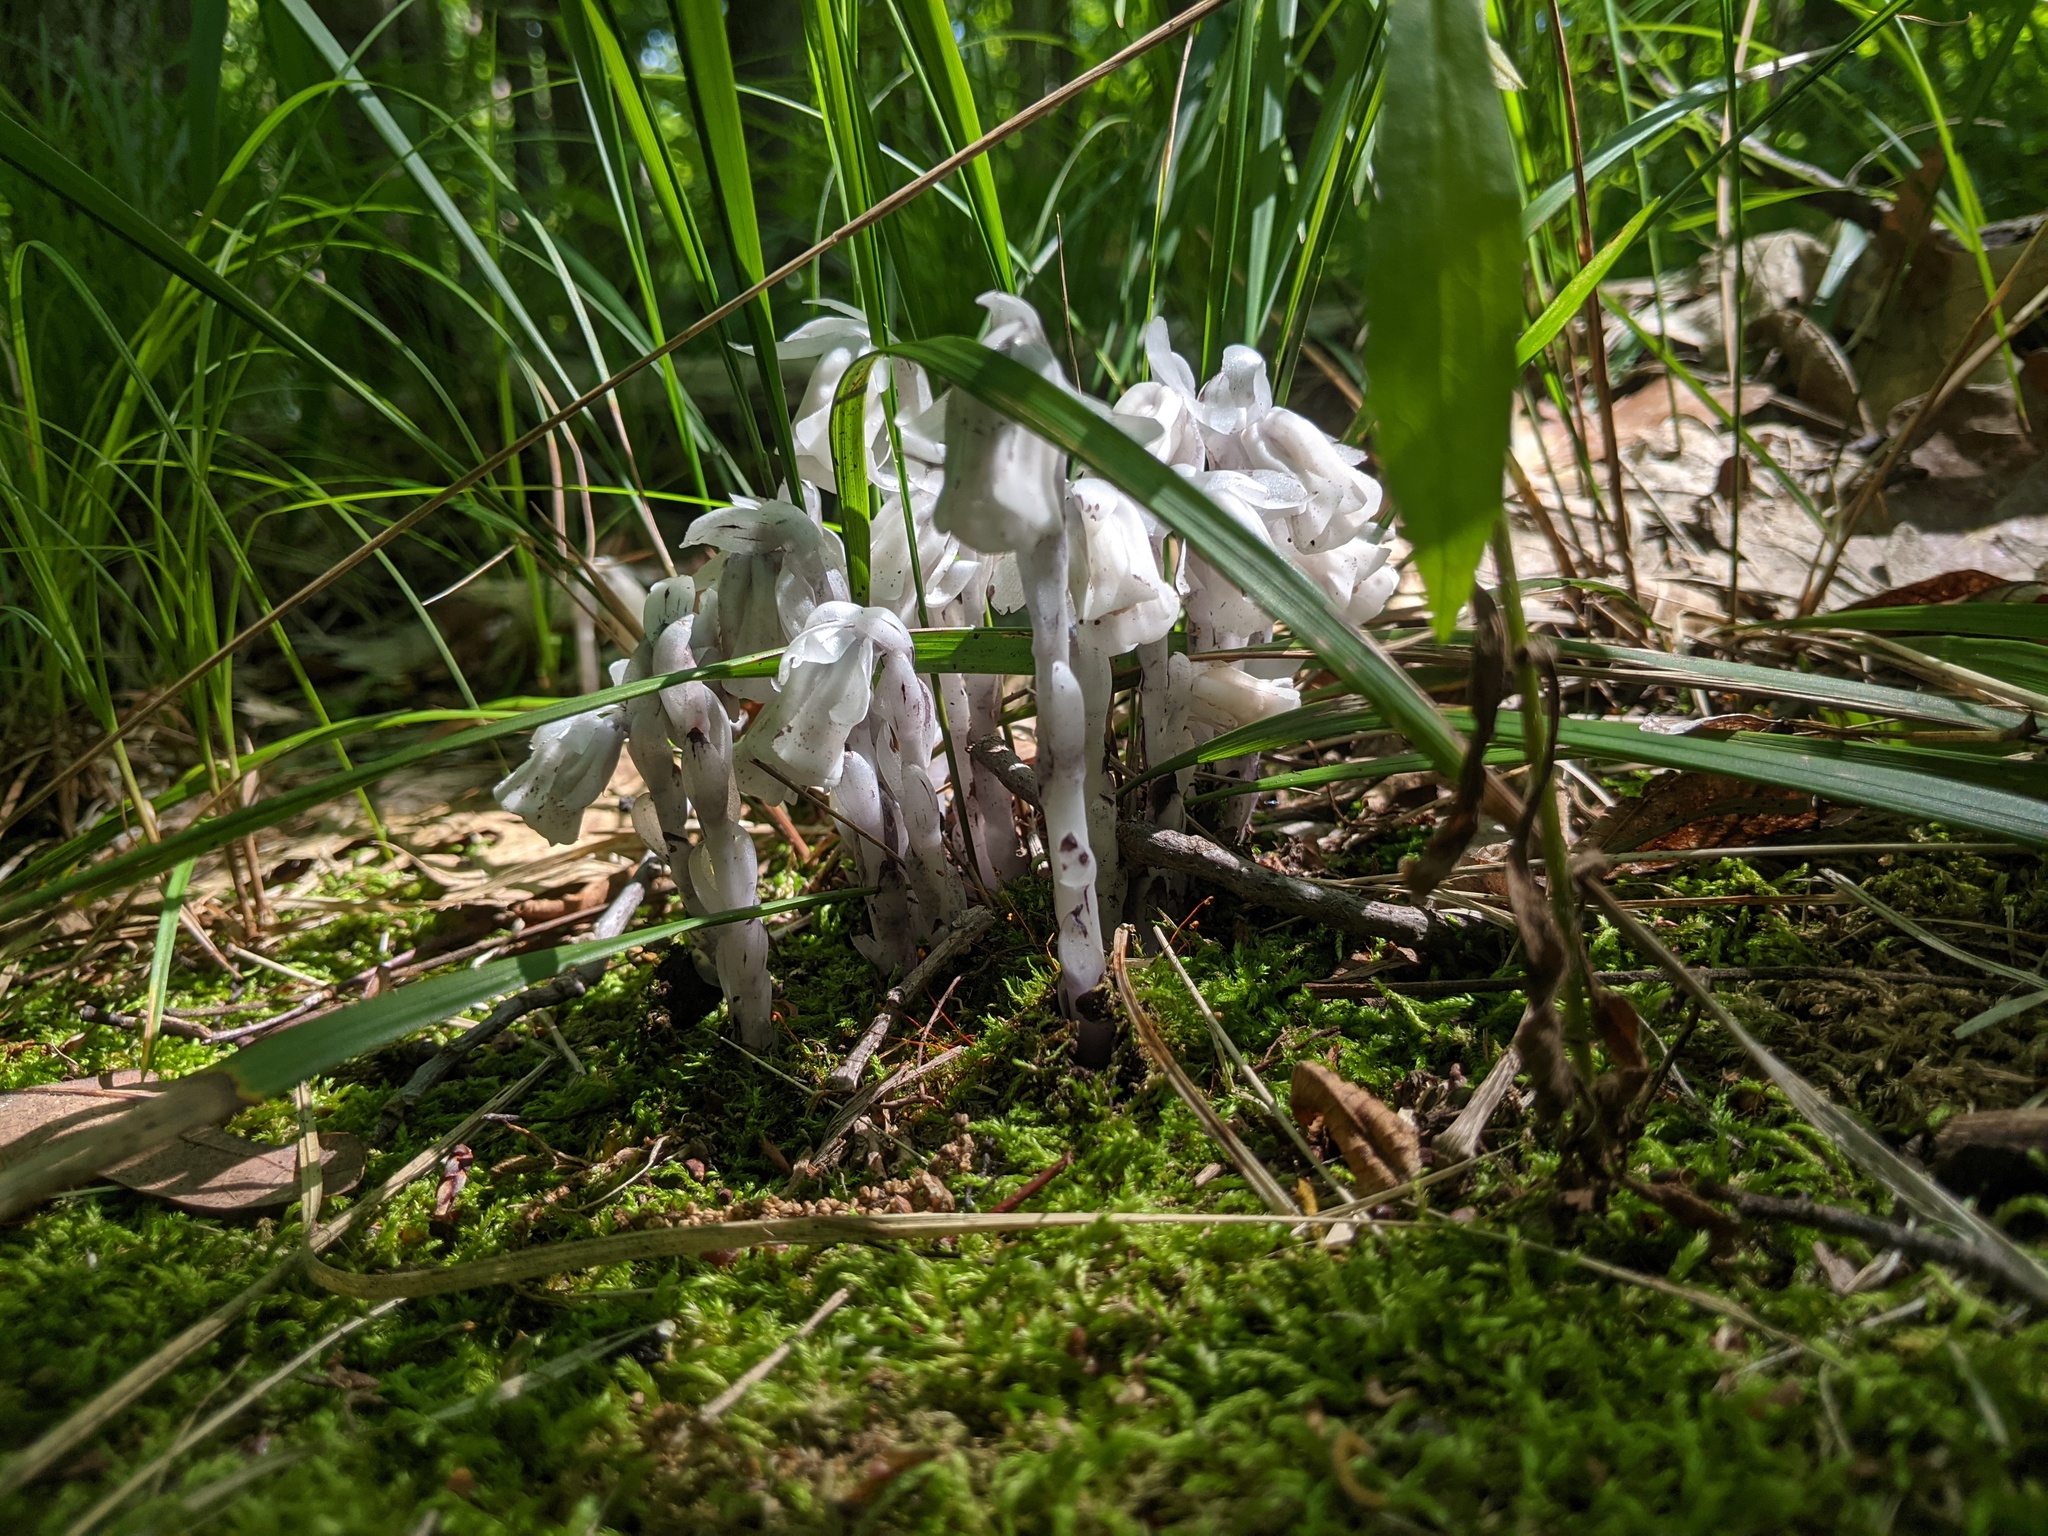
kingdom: Plantae
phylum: Tracheophyta
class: Magnoliopsida
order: Ericales
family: Ericaceae
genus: Monotropa
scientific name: Monotropa uniflora
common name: Convulsion root
